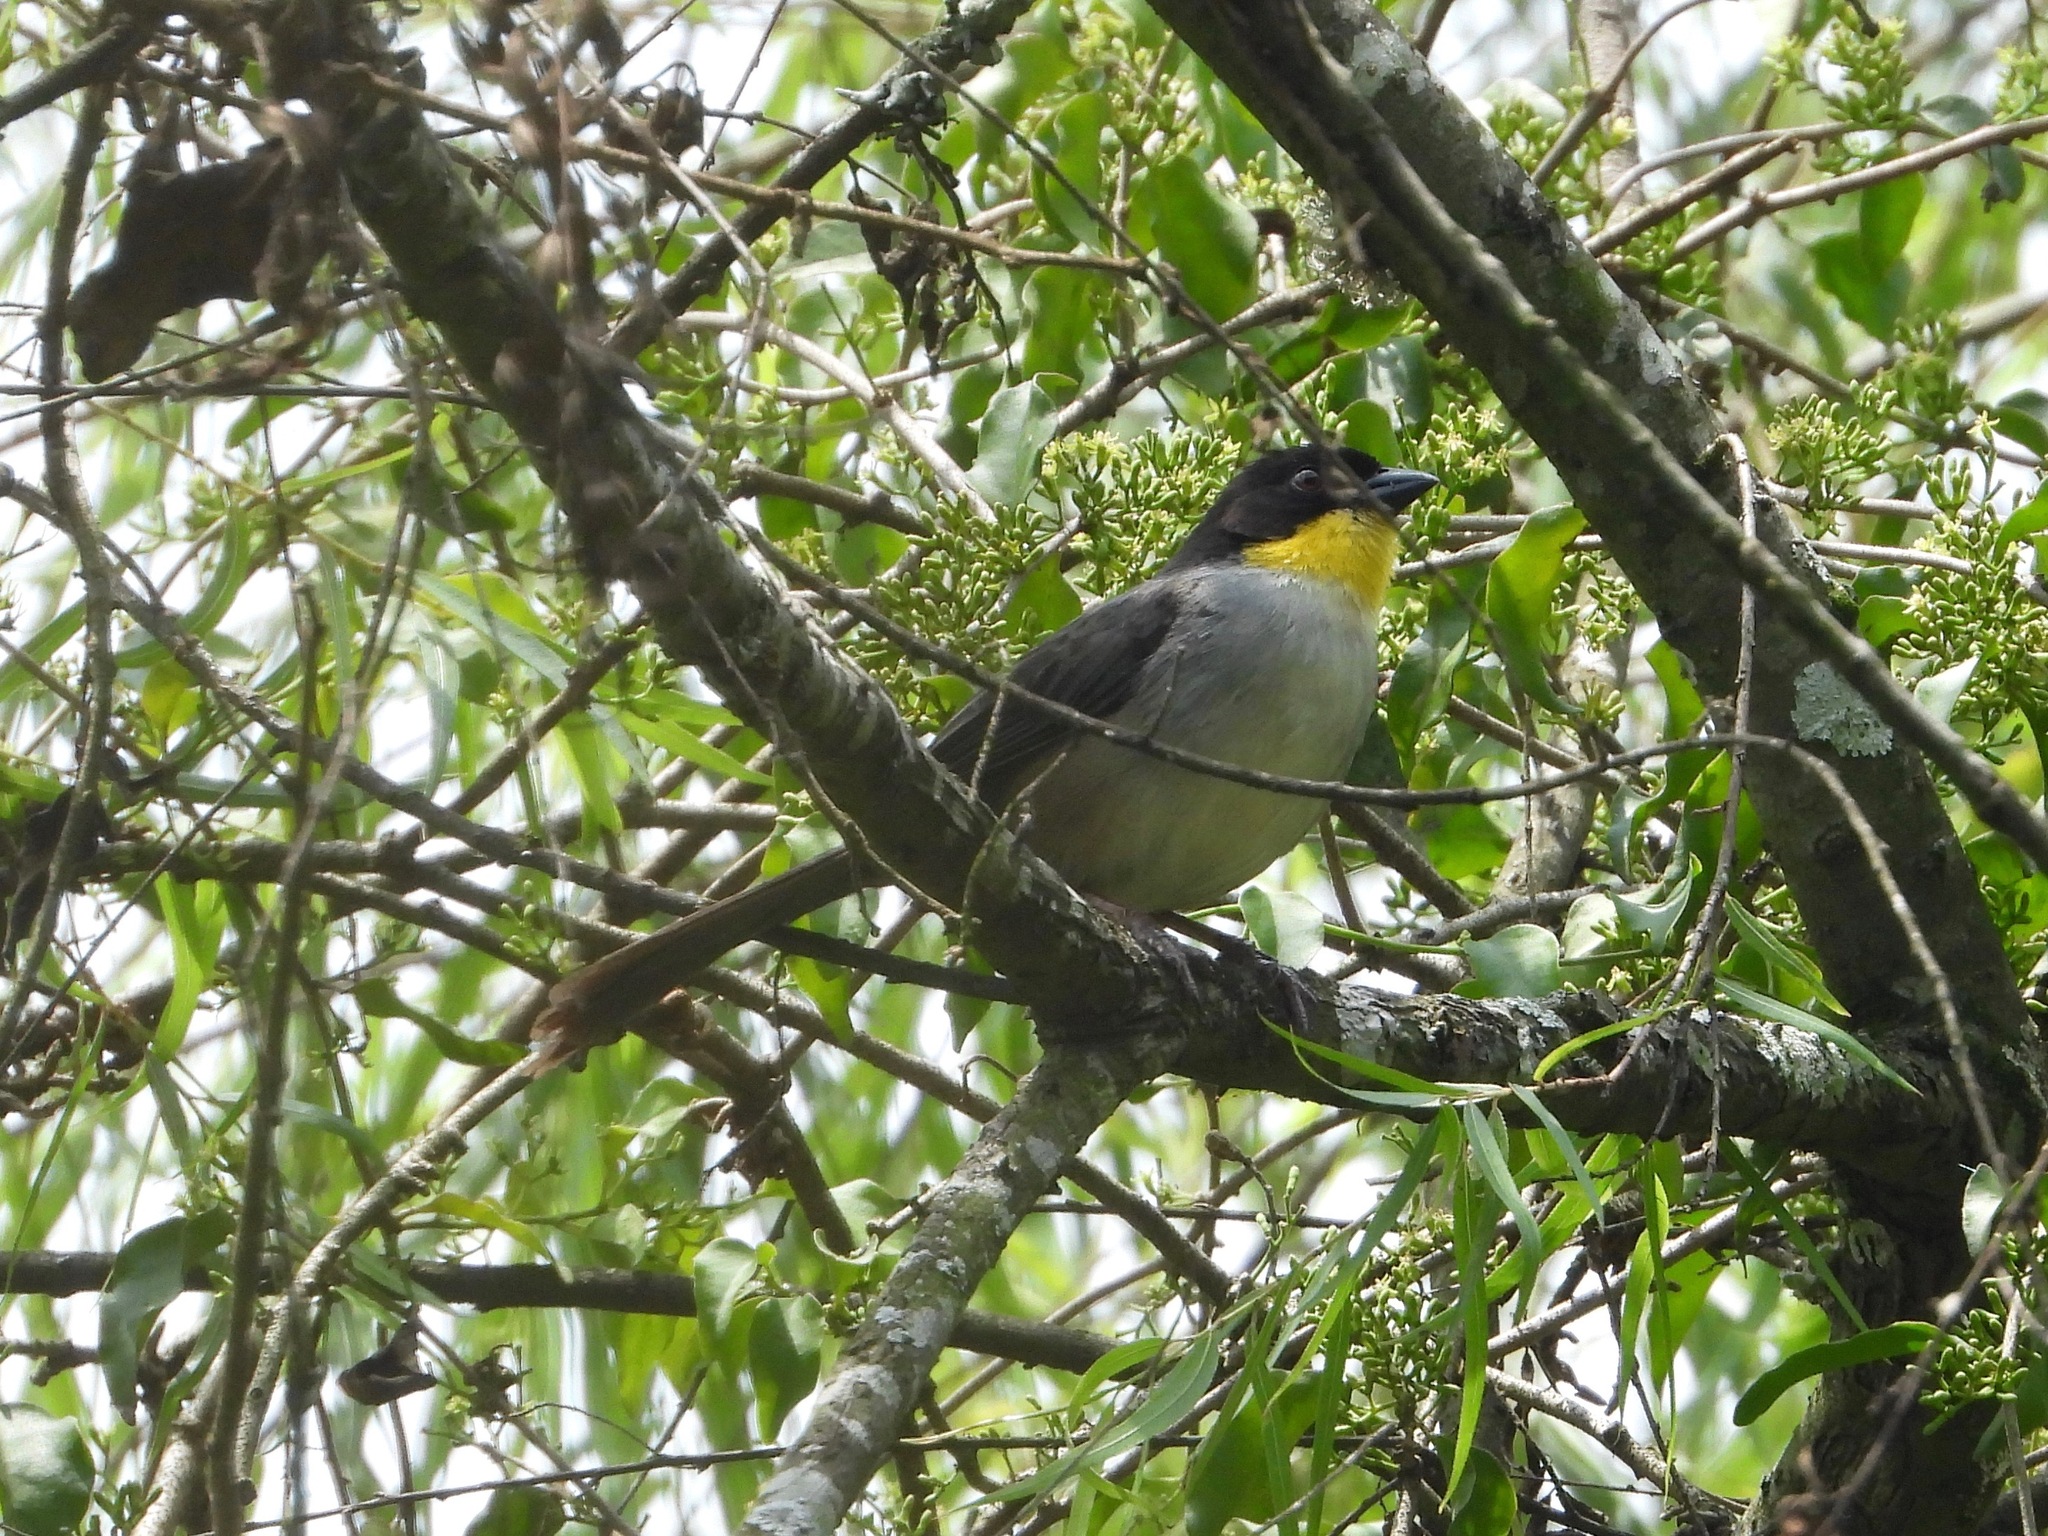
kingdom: Animalia
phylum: Chordata
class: Aves
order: Passeriformes
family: Passerellidae
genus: Atlapetes
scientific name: Atlapetes albinucha
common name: White-naped brush-finch
